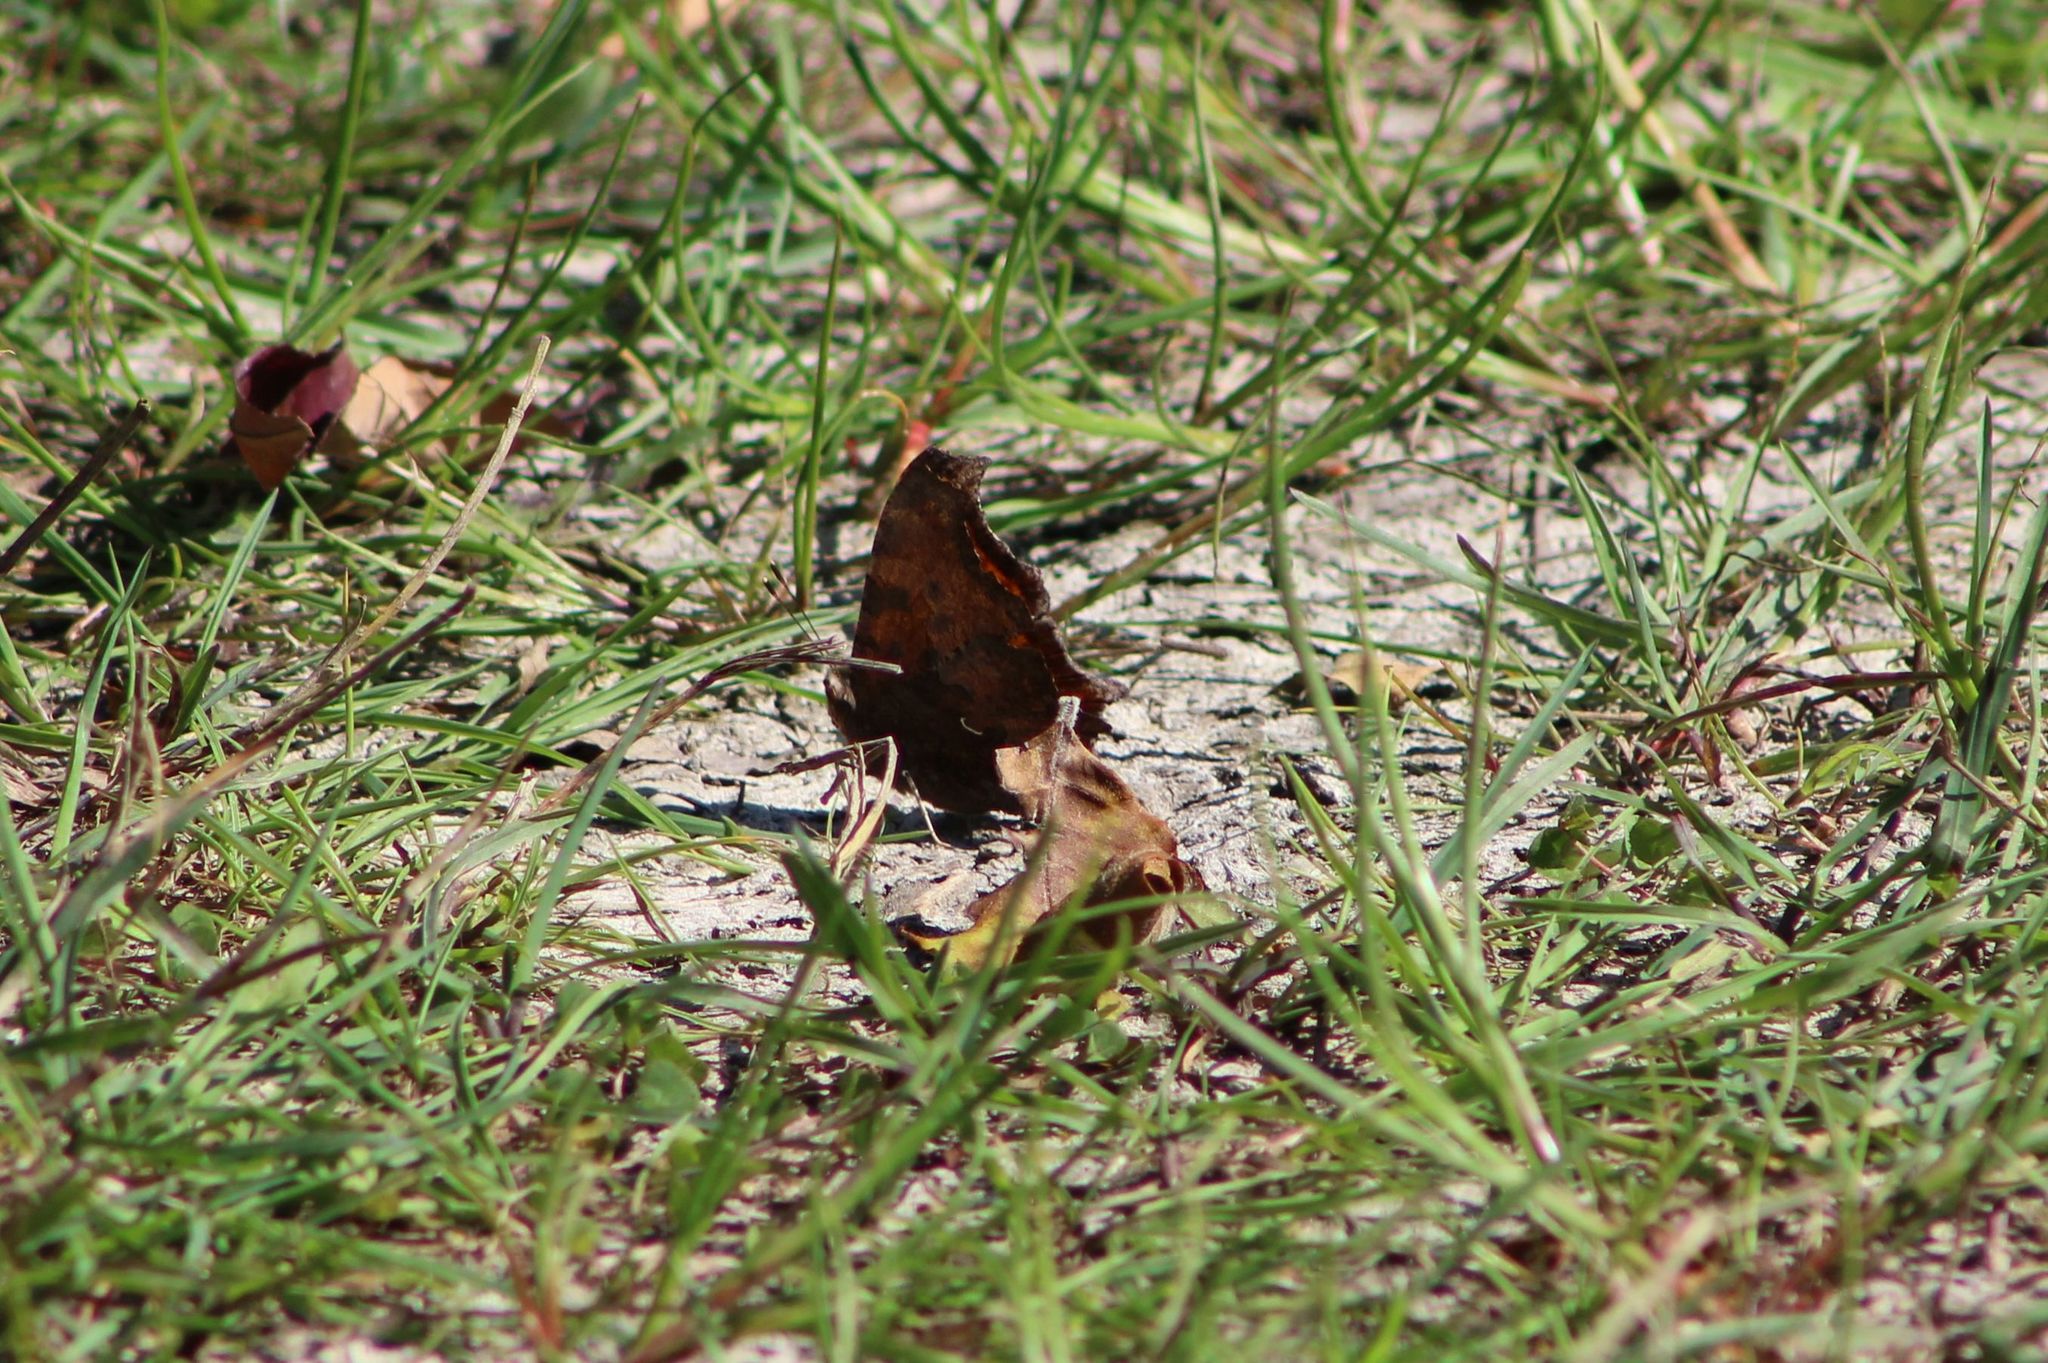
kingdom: Animalia
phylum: Arthropoda
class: Insecta
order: Lepidoptera
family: Nymphalidae
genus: Polygonia
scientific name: Polygonia comma
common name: Eastern comma
